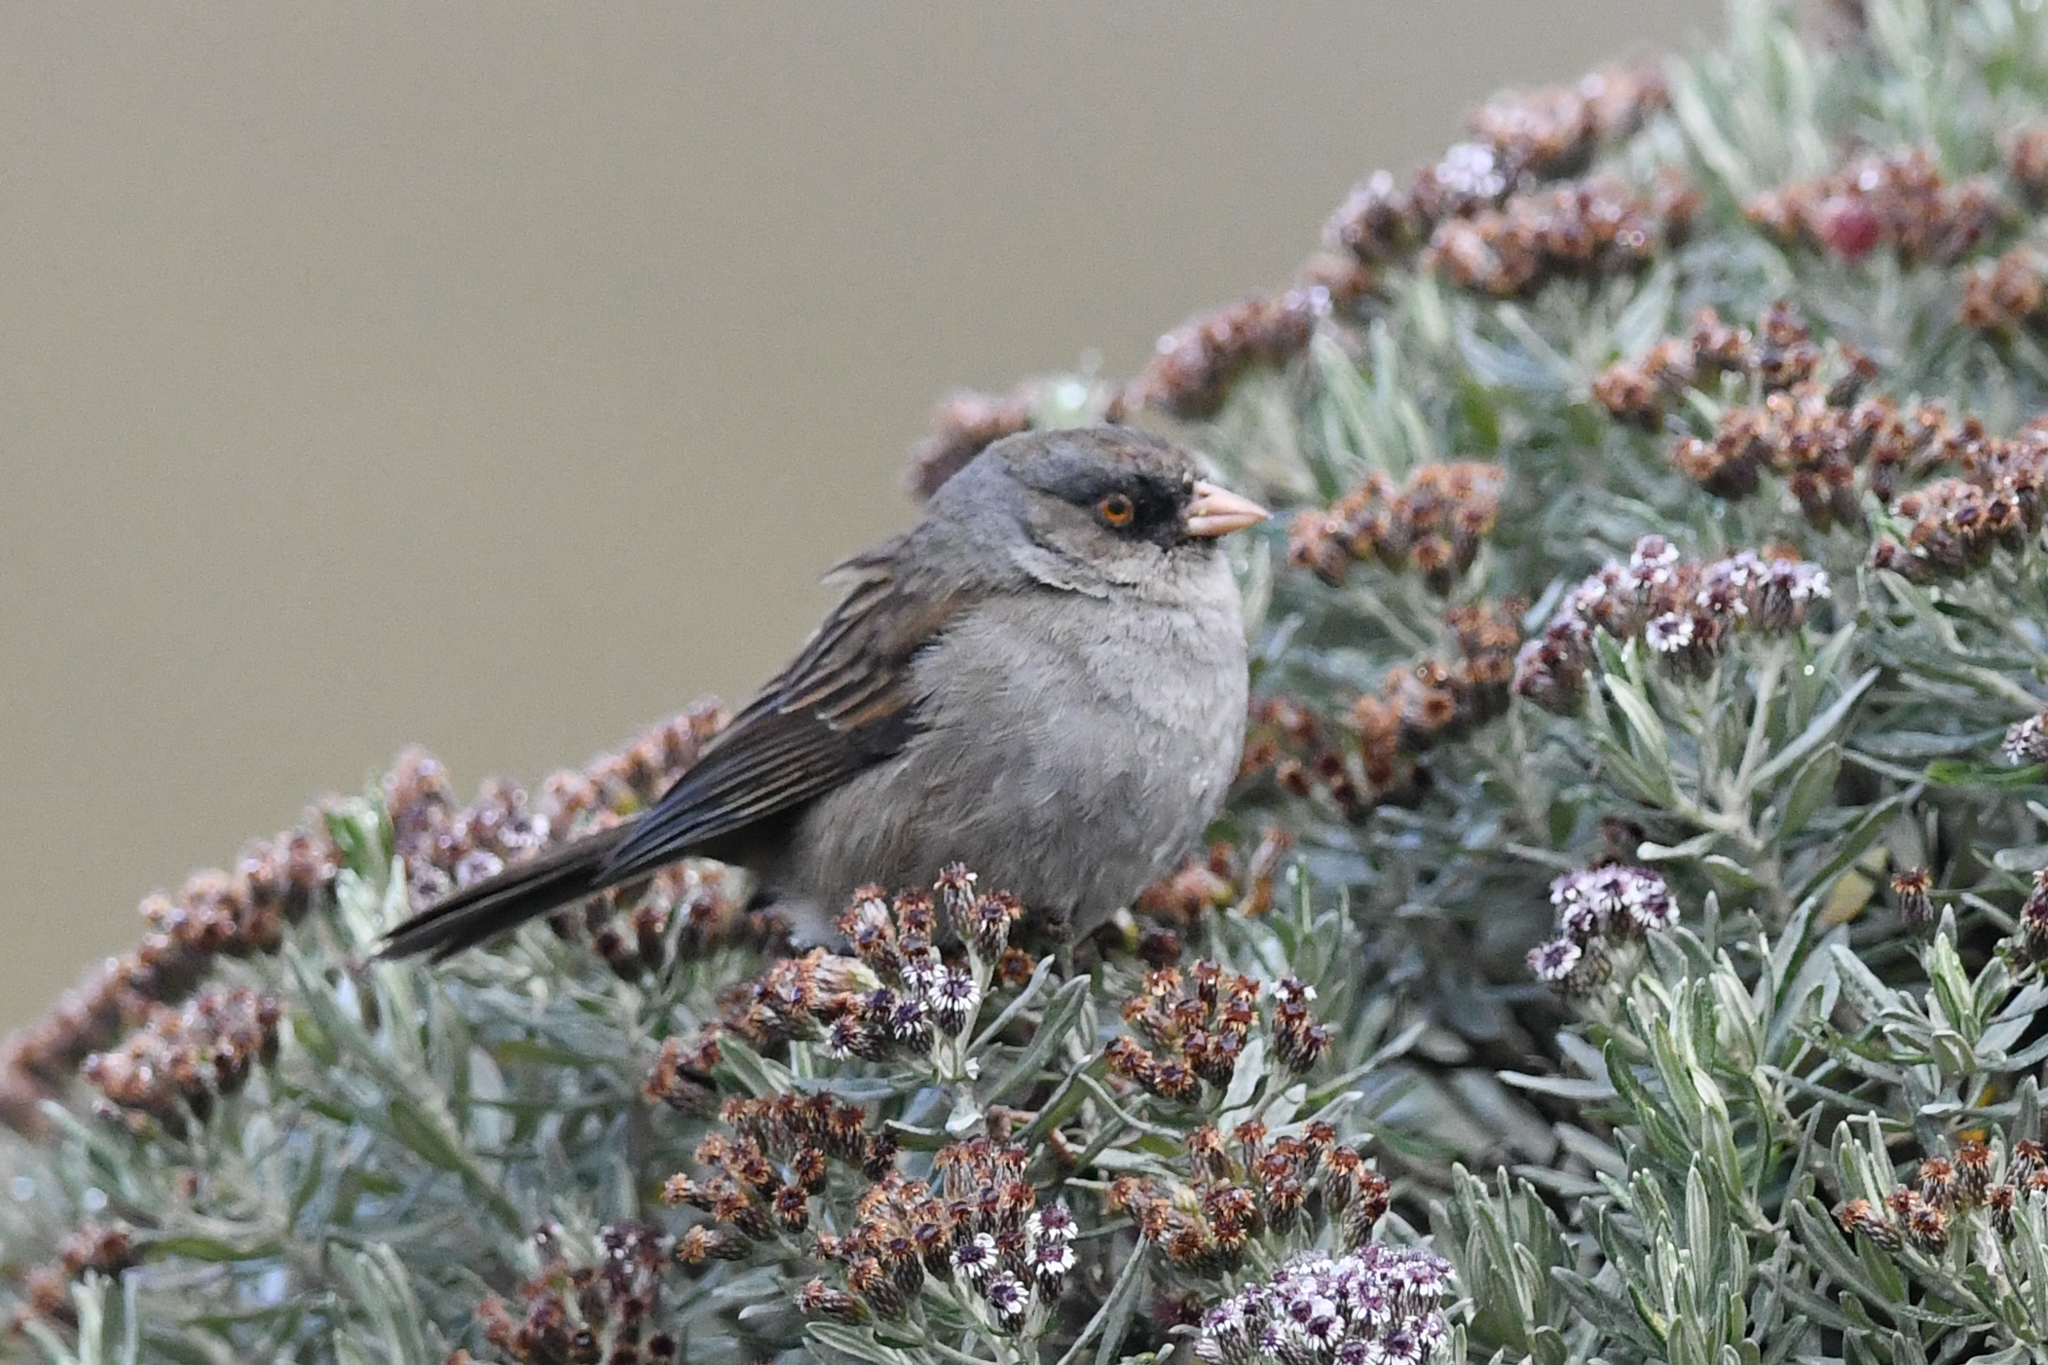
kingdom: Animalia
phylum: Chordata
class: Aves
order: Passeriformes
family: Passerellidae
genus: Junco
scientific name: Junco vulcani
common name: Volcano junco
